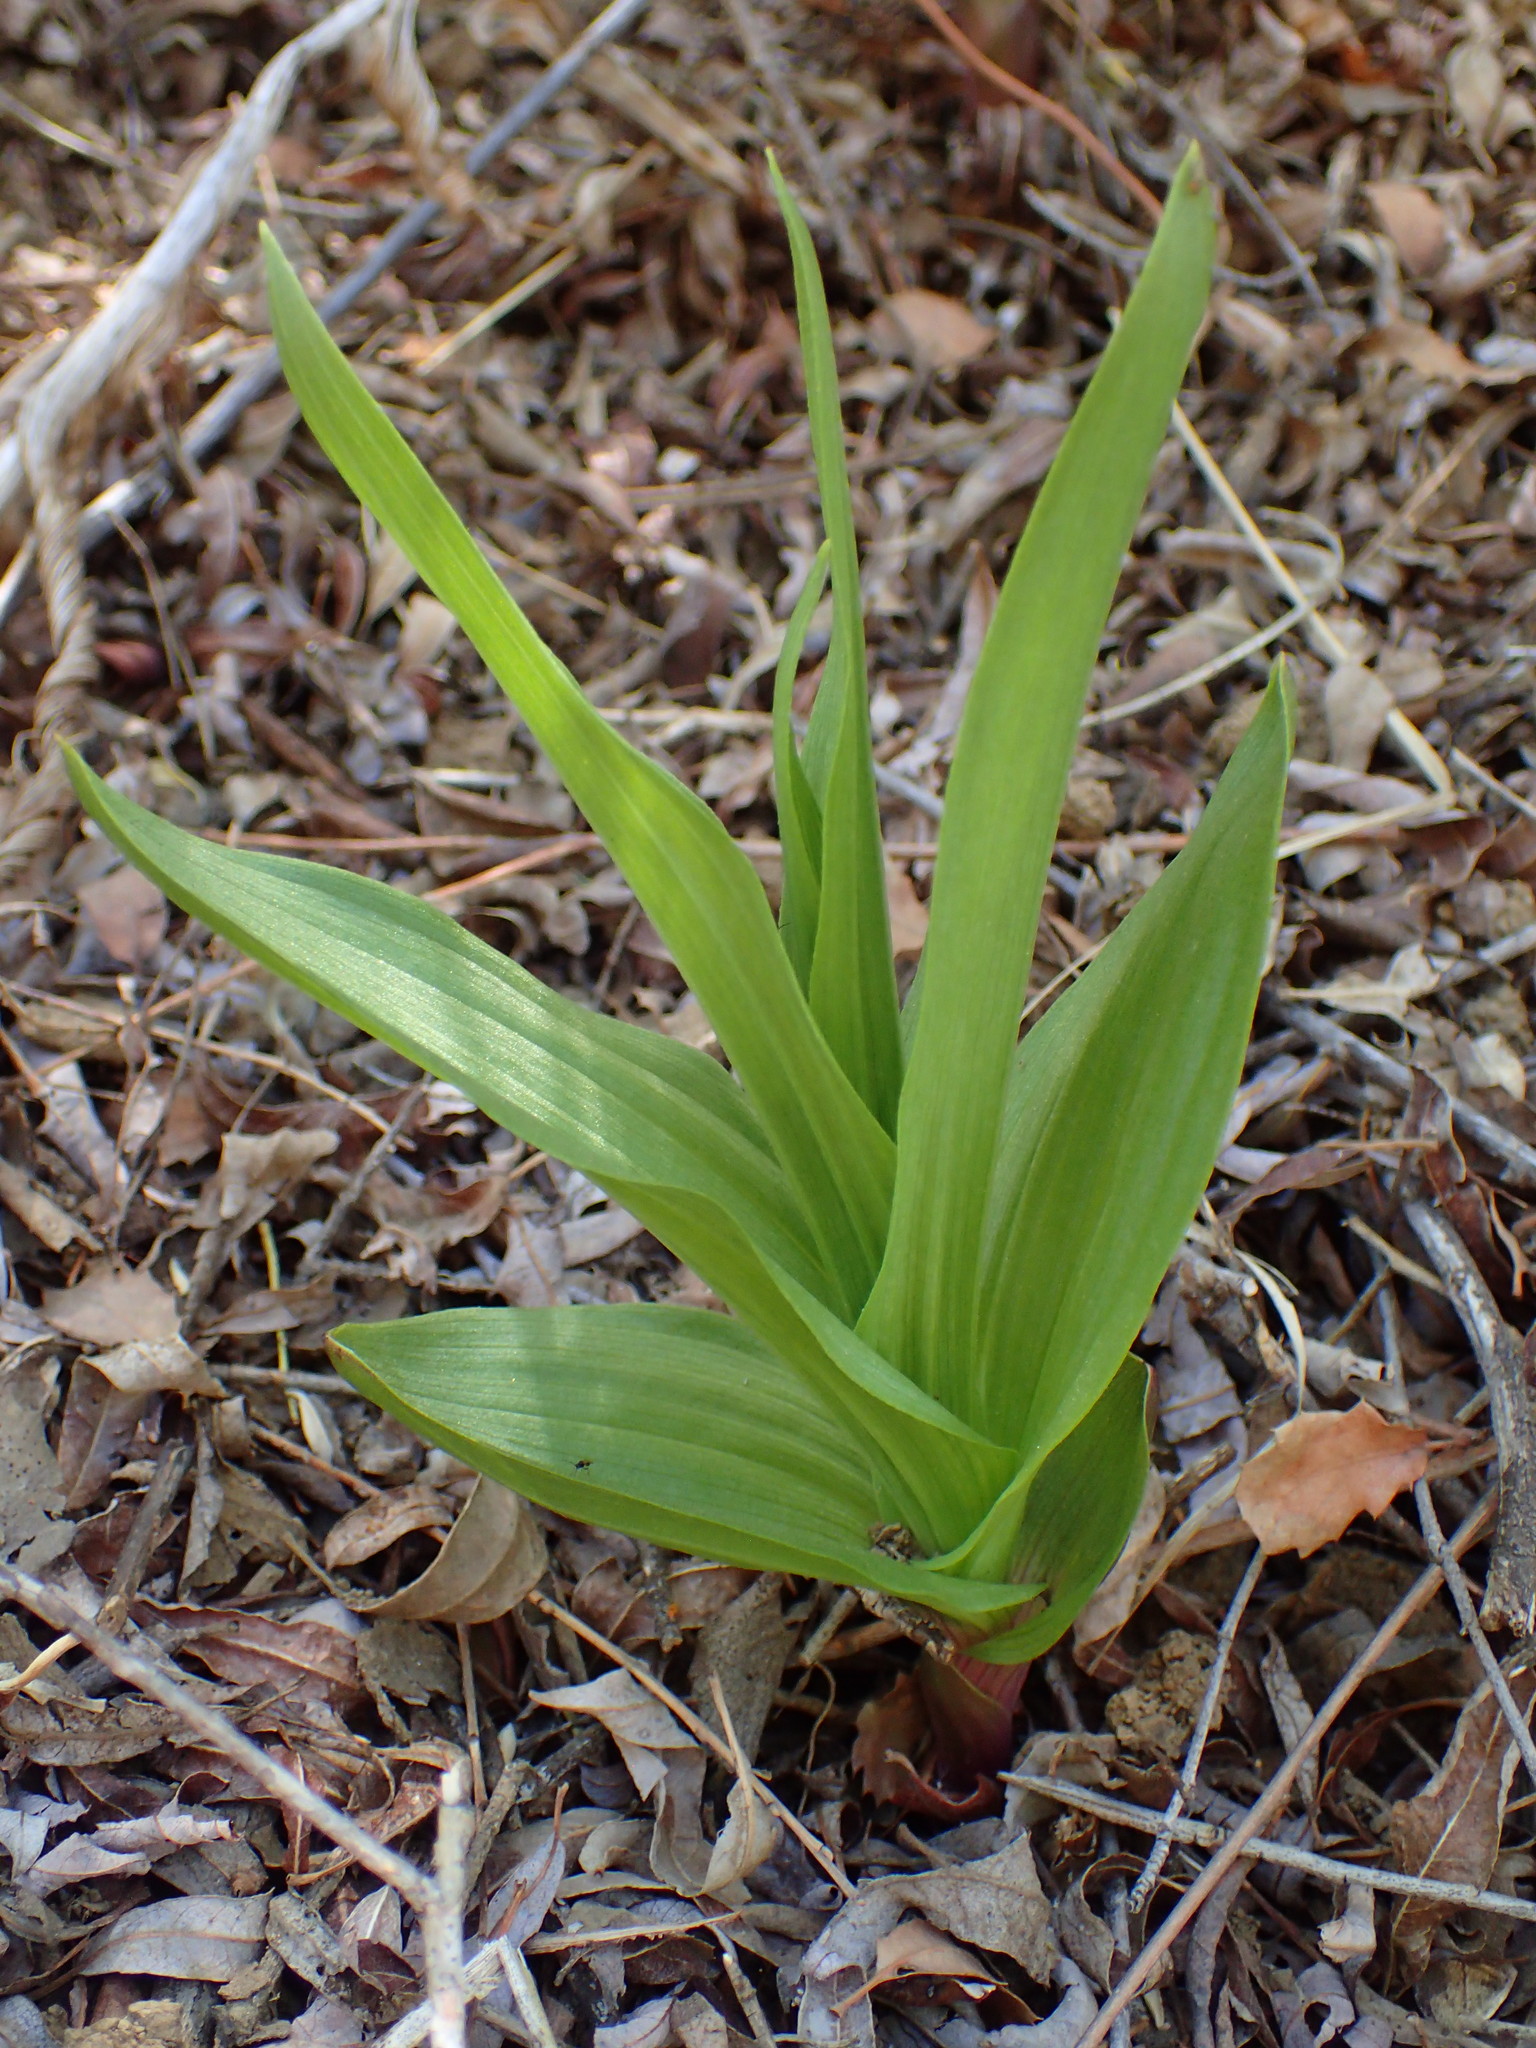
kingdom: Plantae
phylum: Tracheophyta
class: Liliopsida
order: Asparagales
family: Orchidaceae
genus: Epipactis
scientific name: Epipactis gigantea
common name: Chatterbox
